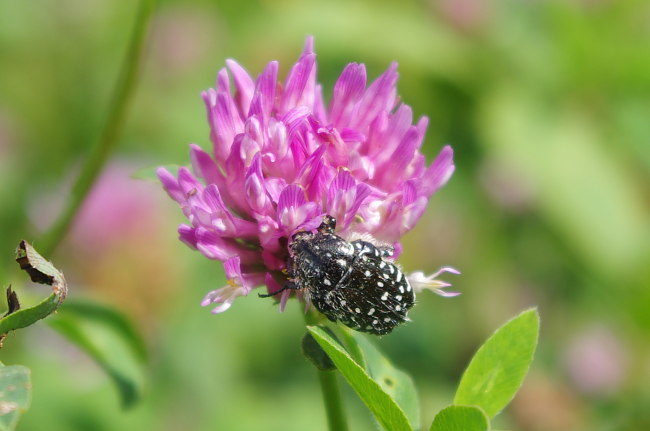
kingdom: Animalia
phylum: Arthropoda
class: Insecta
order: Coleoptera
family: Scarabaeidae
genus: Oxythyrea
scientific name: Oxythyrea funesta
